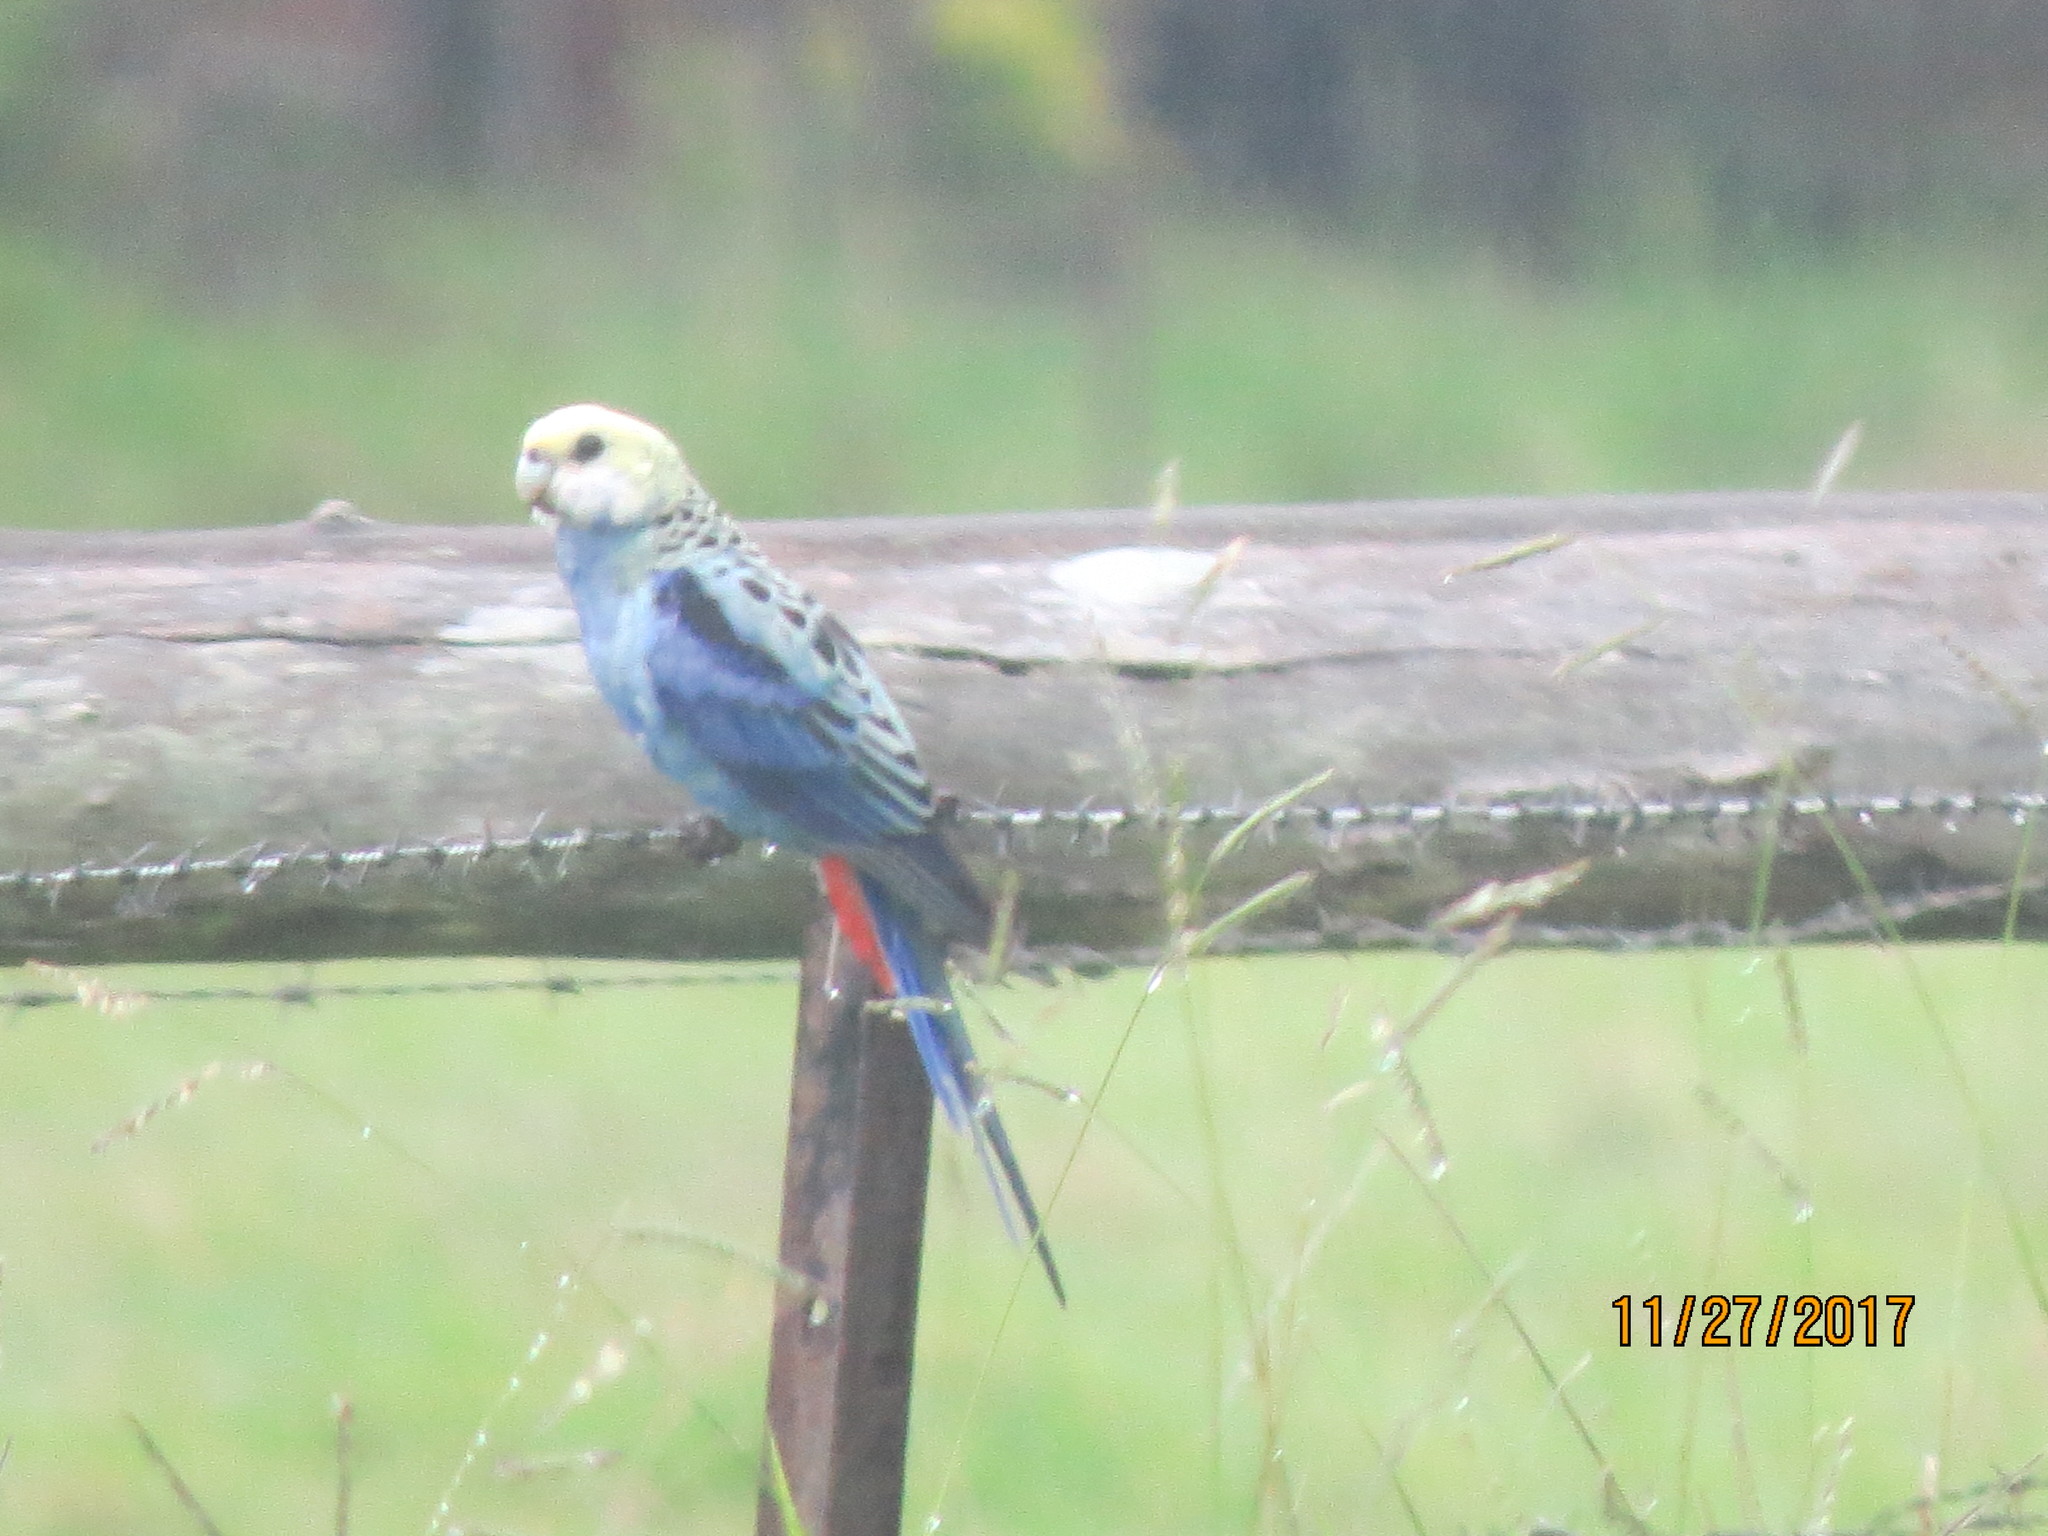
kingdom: Animalia
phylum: Chordata
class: Aves
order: Psittaciformes
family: Psittacidae
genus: Platycercus
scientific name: Platycercus adscitus
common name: Pale-headed rosella
